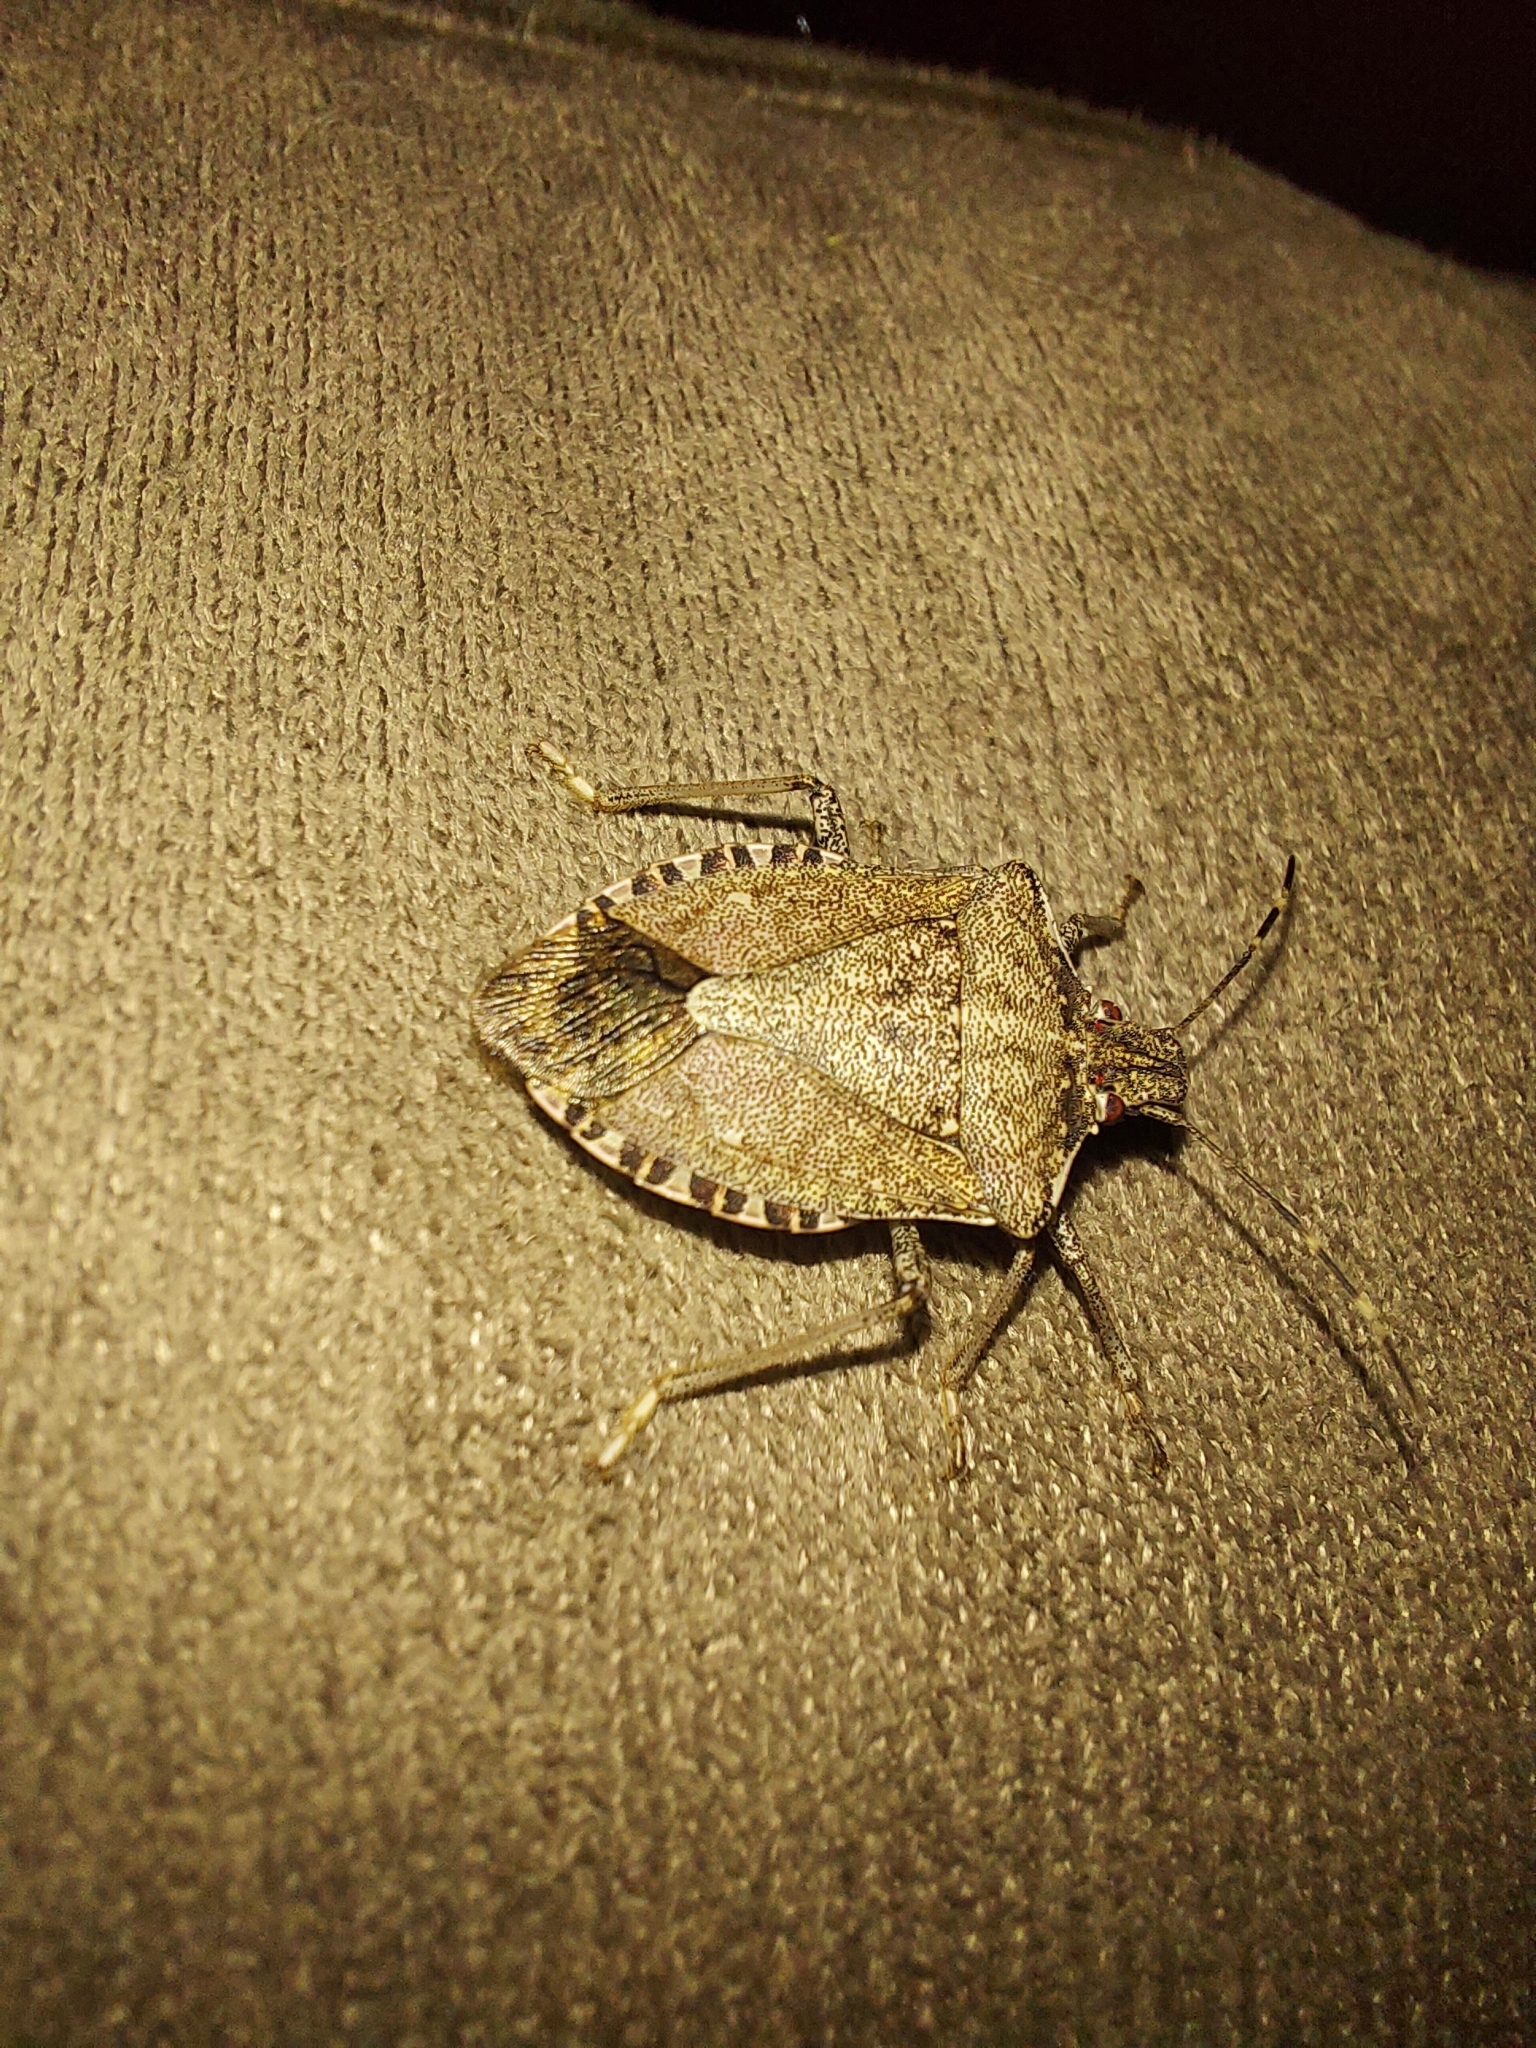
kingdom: Animalia
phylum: Arthropoda
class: Insecta
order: Hemiptera
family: Pentatomidae
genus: Halyomorpha
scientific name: Halyomorpha halys
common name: Brown marmorated stink bug
